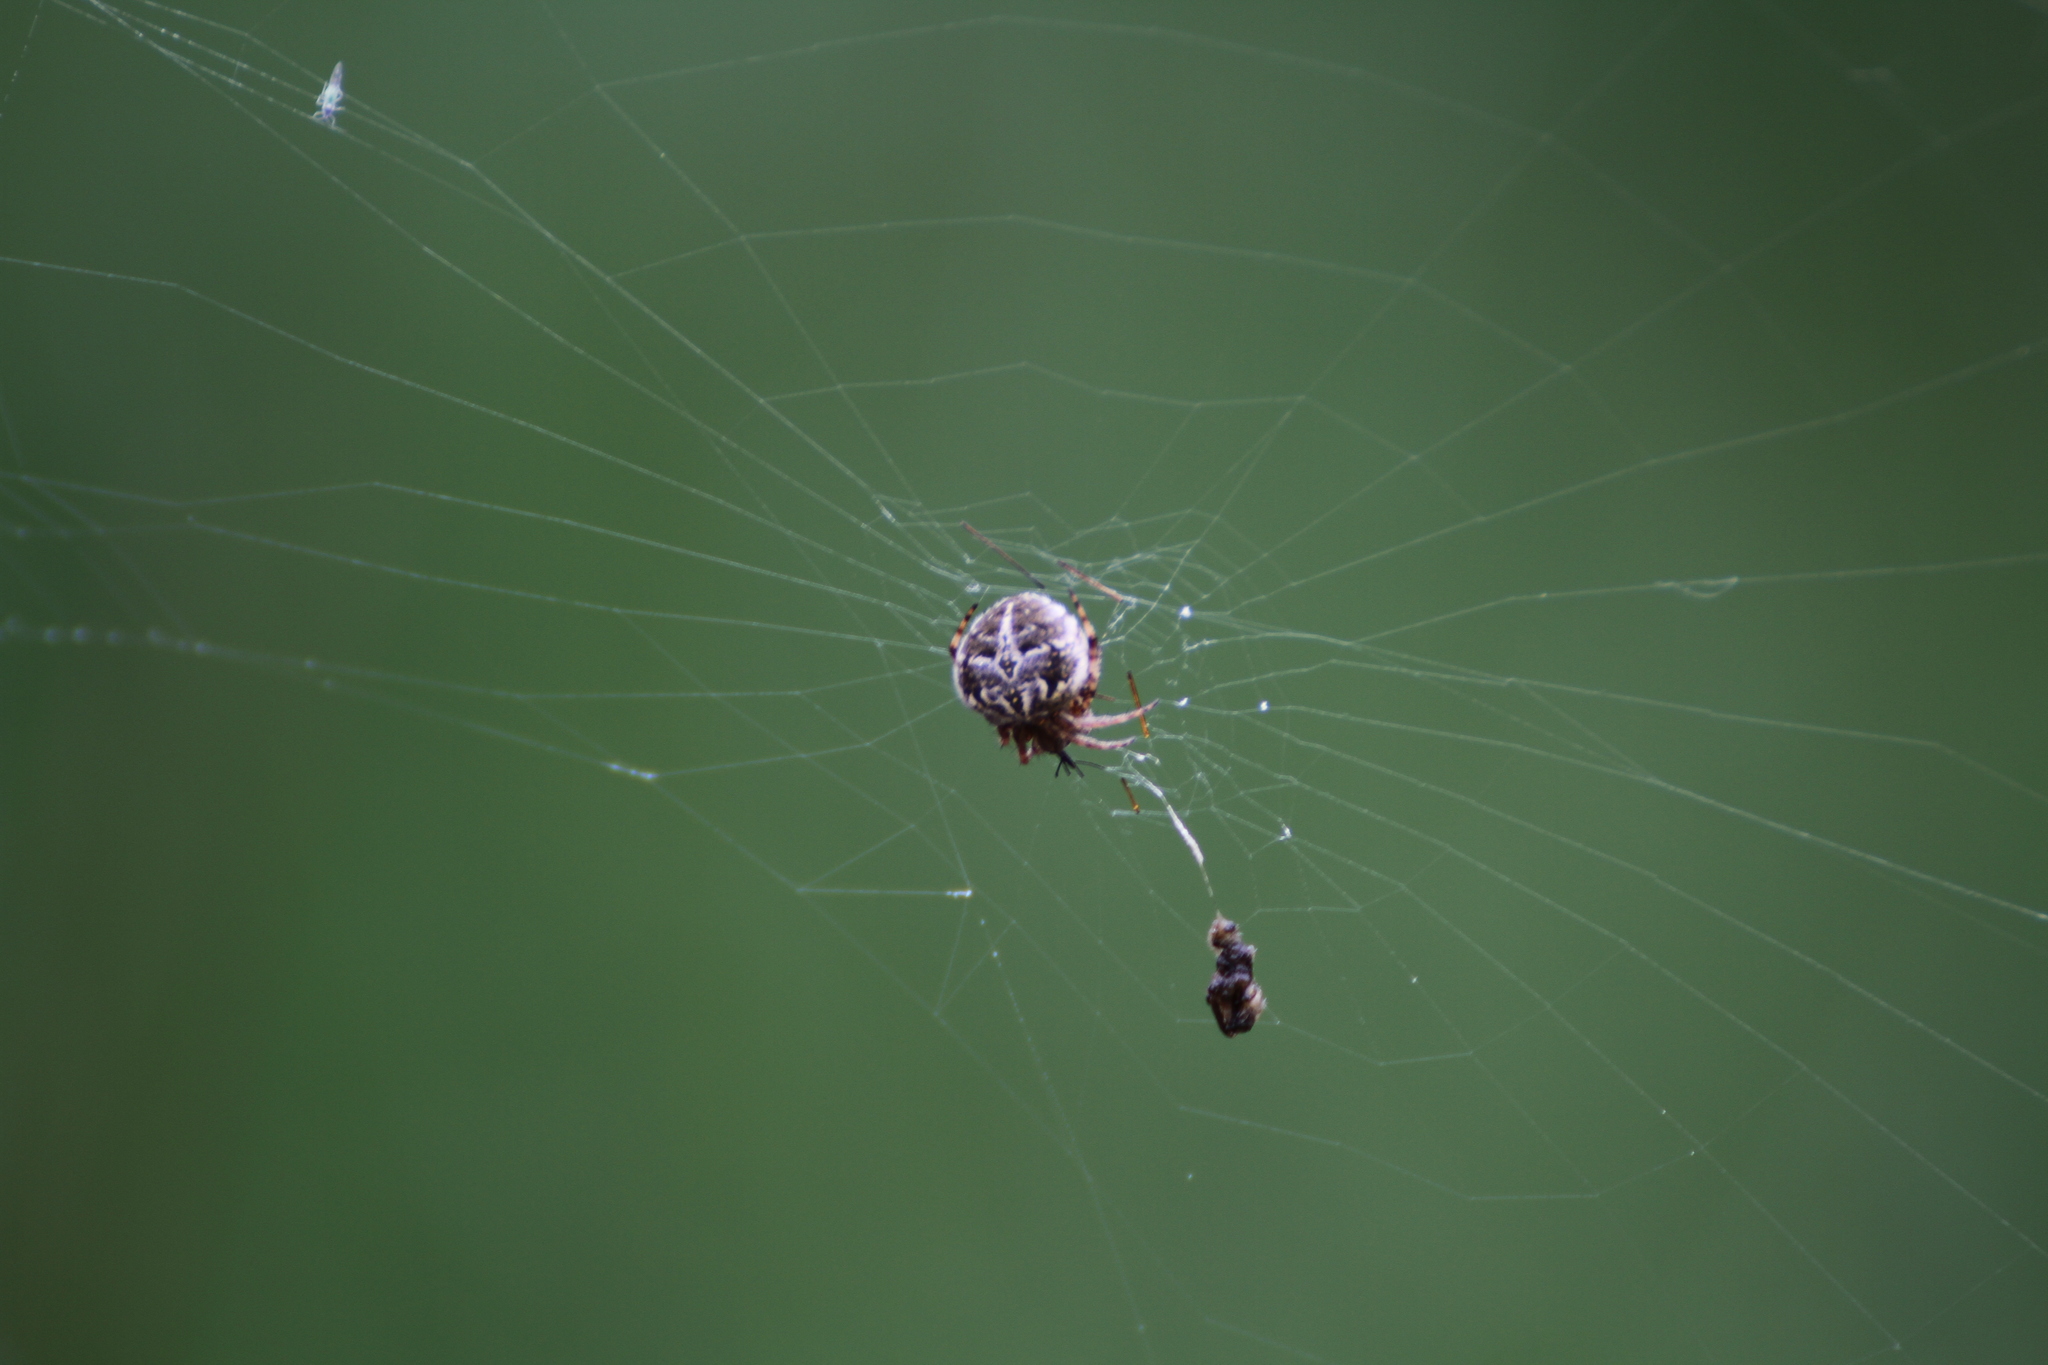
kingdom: Animalia
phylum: Arthropoda
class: Arachnida
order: Araneae
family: Araneidae
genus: Agalenatea
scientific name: Agalenatea redii
